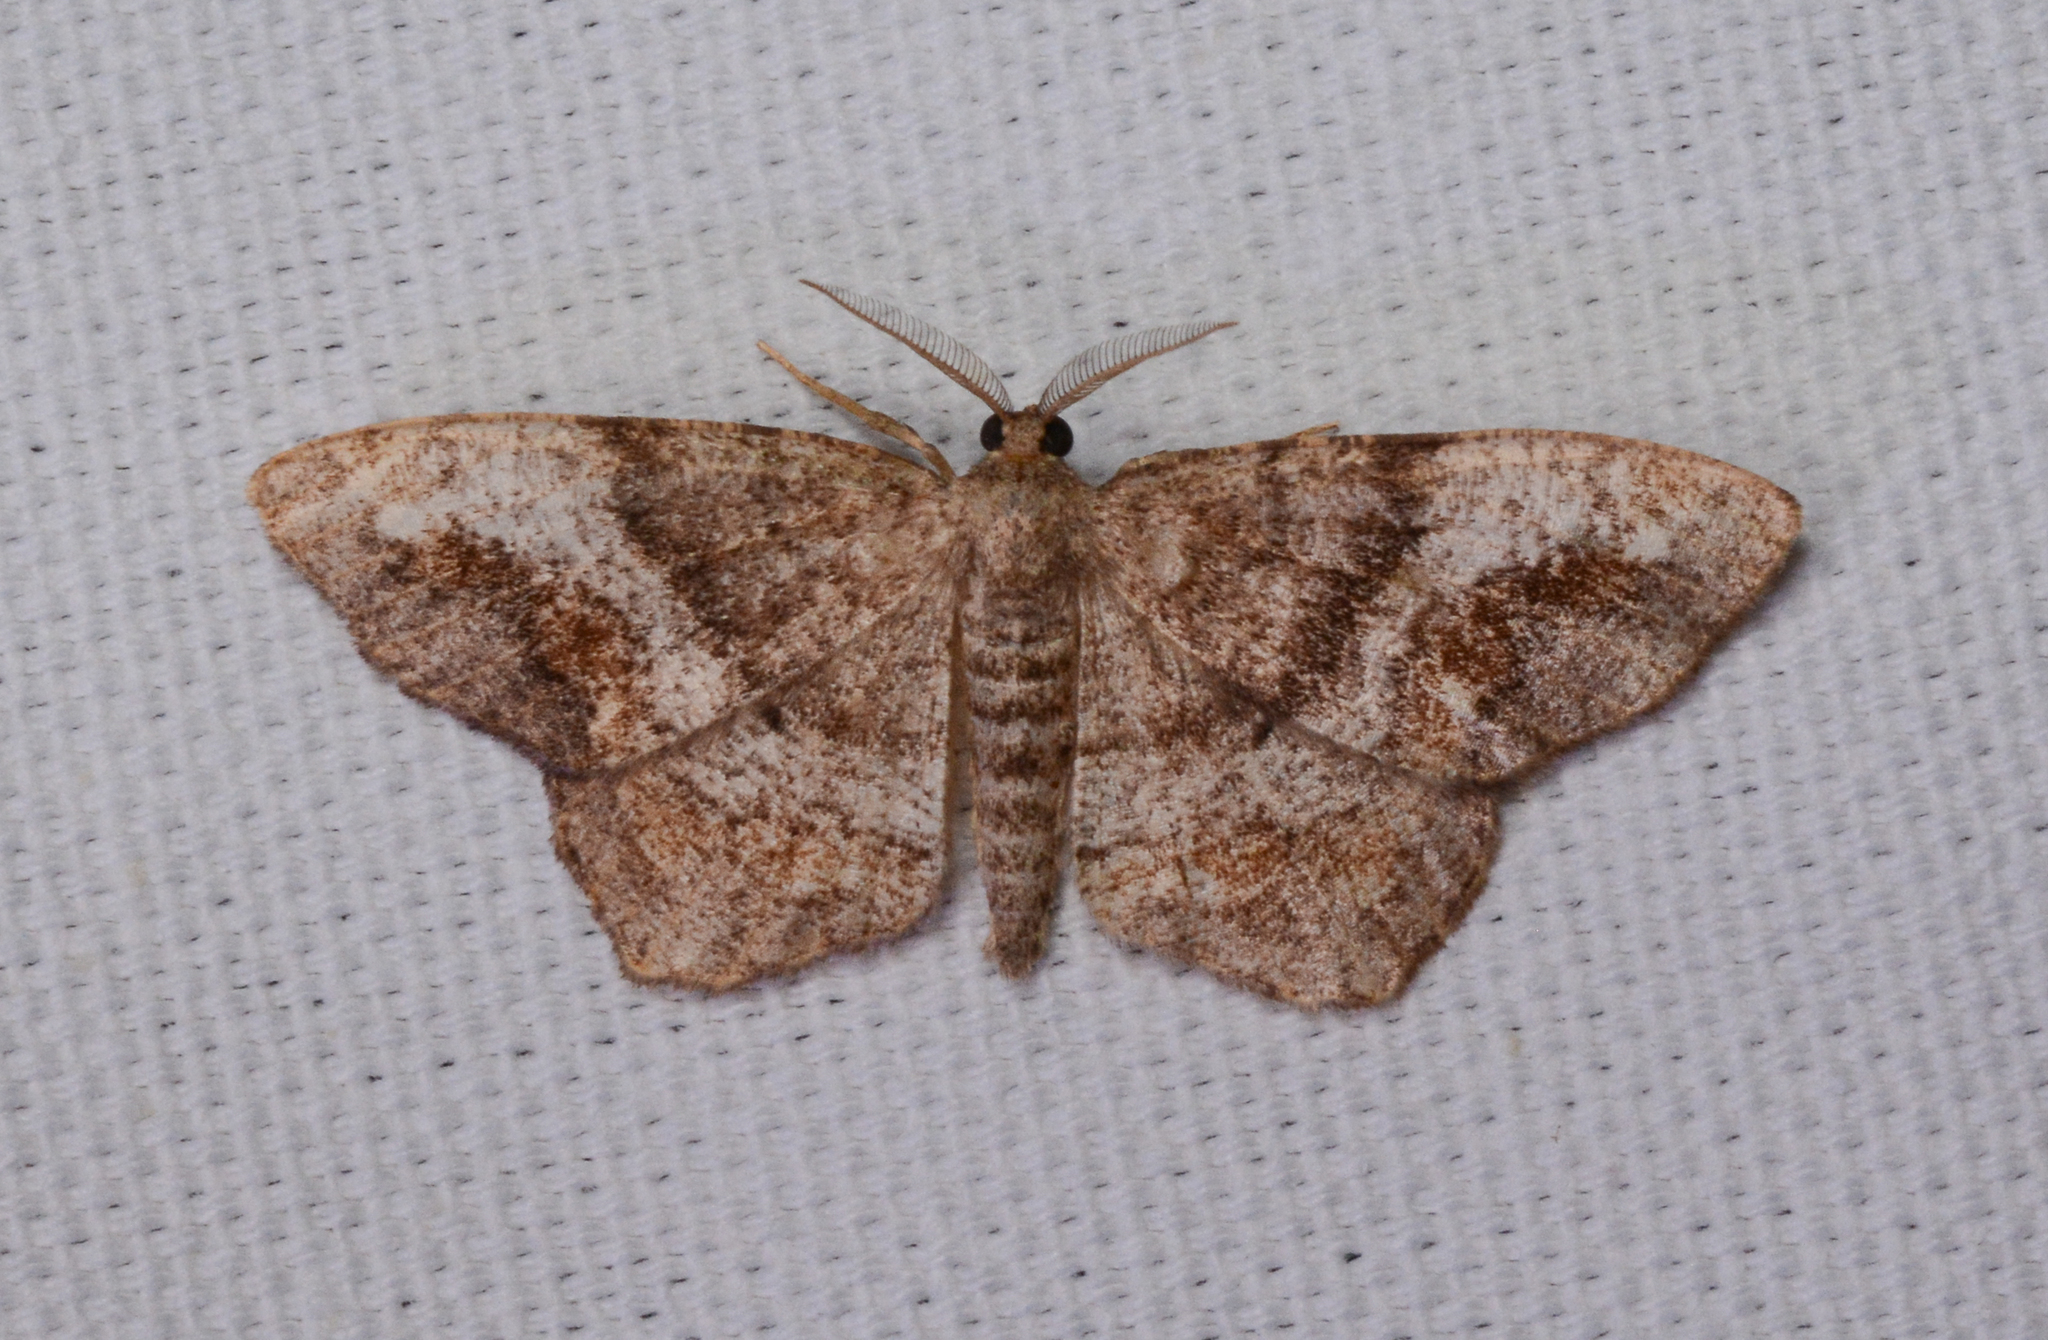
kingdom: Animalia
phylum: Arthropoda
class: Insecta
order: Lepidoptera
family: Geometridae
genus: Hypagyrtis
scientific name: Hypagyrtis unipunctata
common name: One-spotted variant
